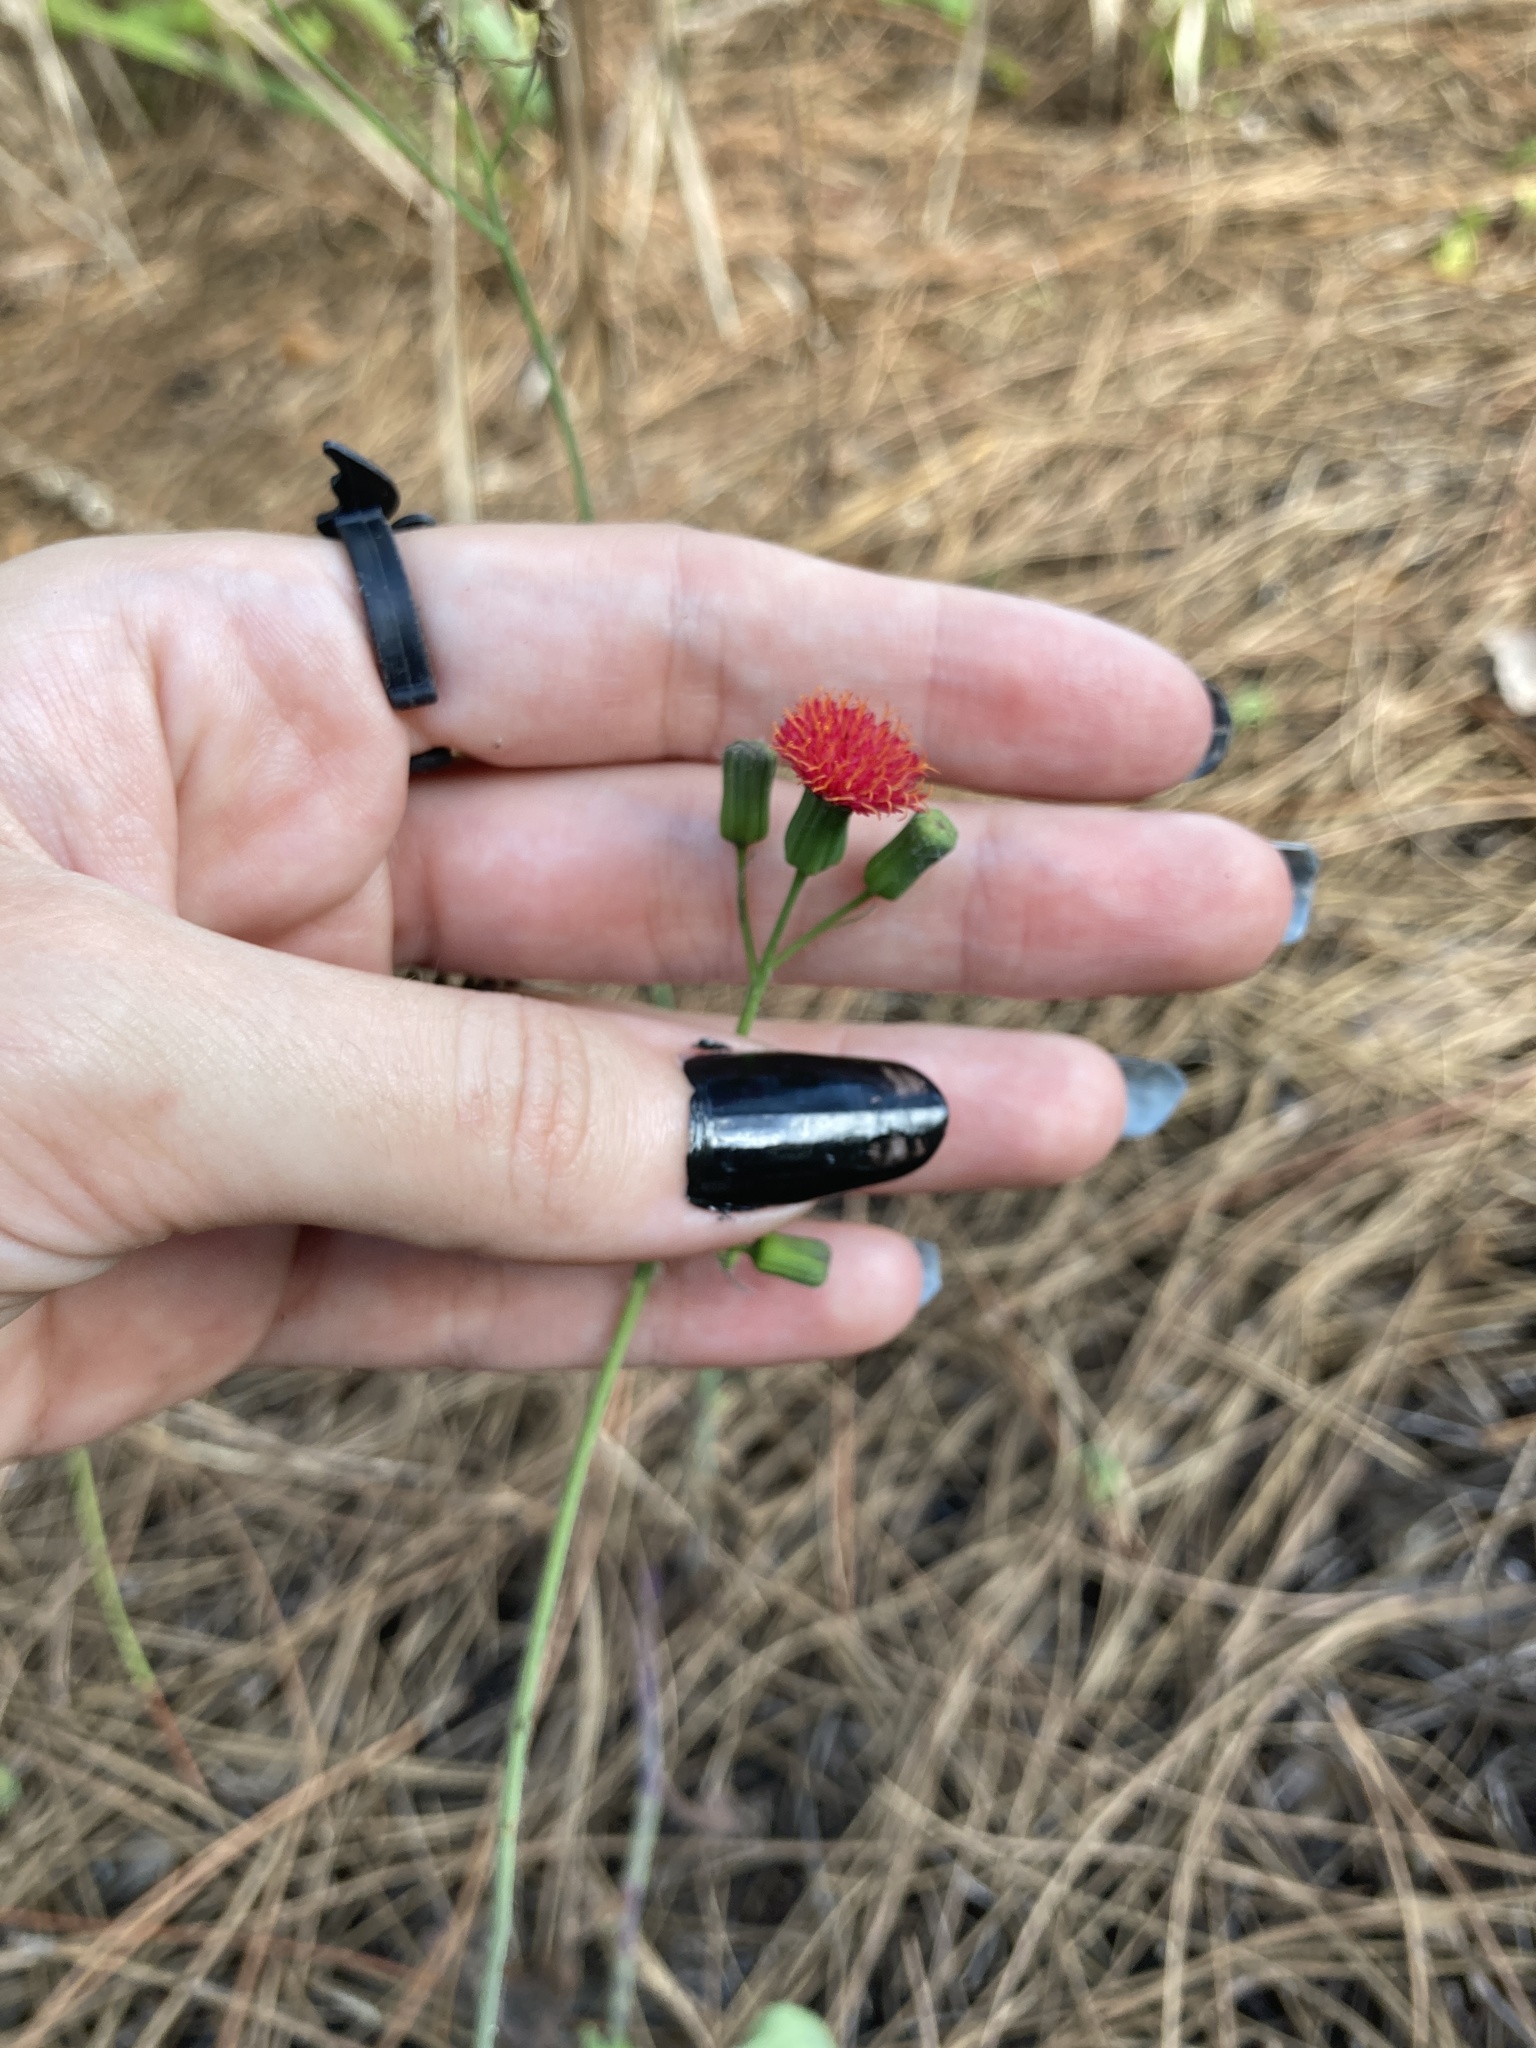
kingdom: Plantae
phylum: Tracheophyta
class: Magnoliopsida
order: Asterales
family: Asteraceae
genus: Emilia
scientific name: Emilia fosbergii
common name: Florida tasselflower
